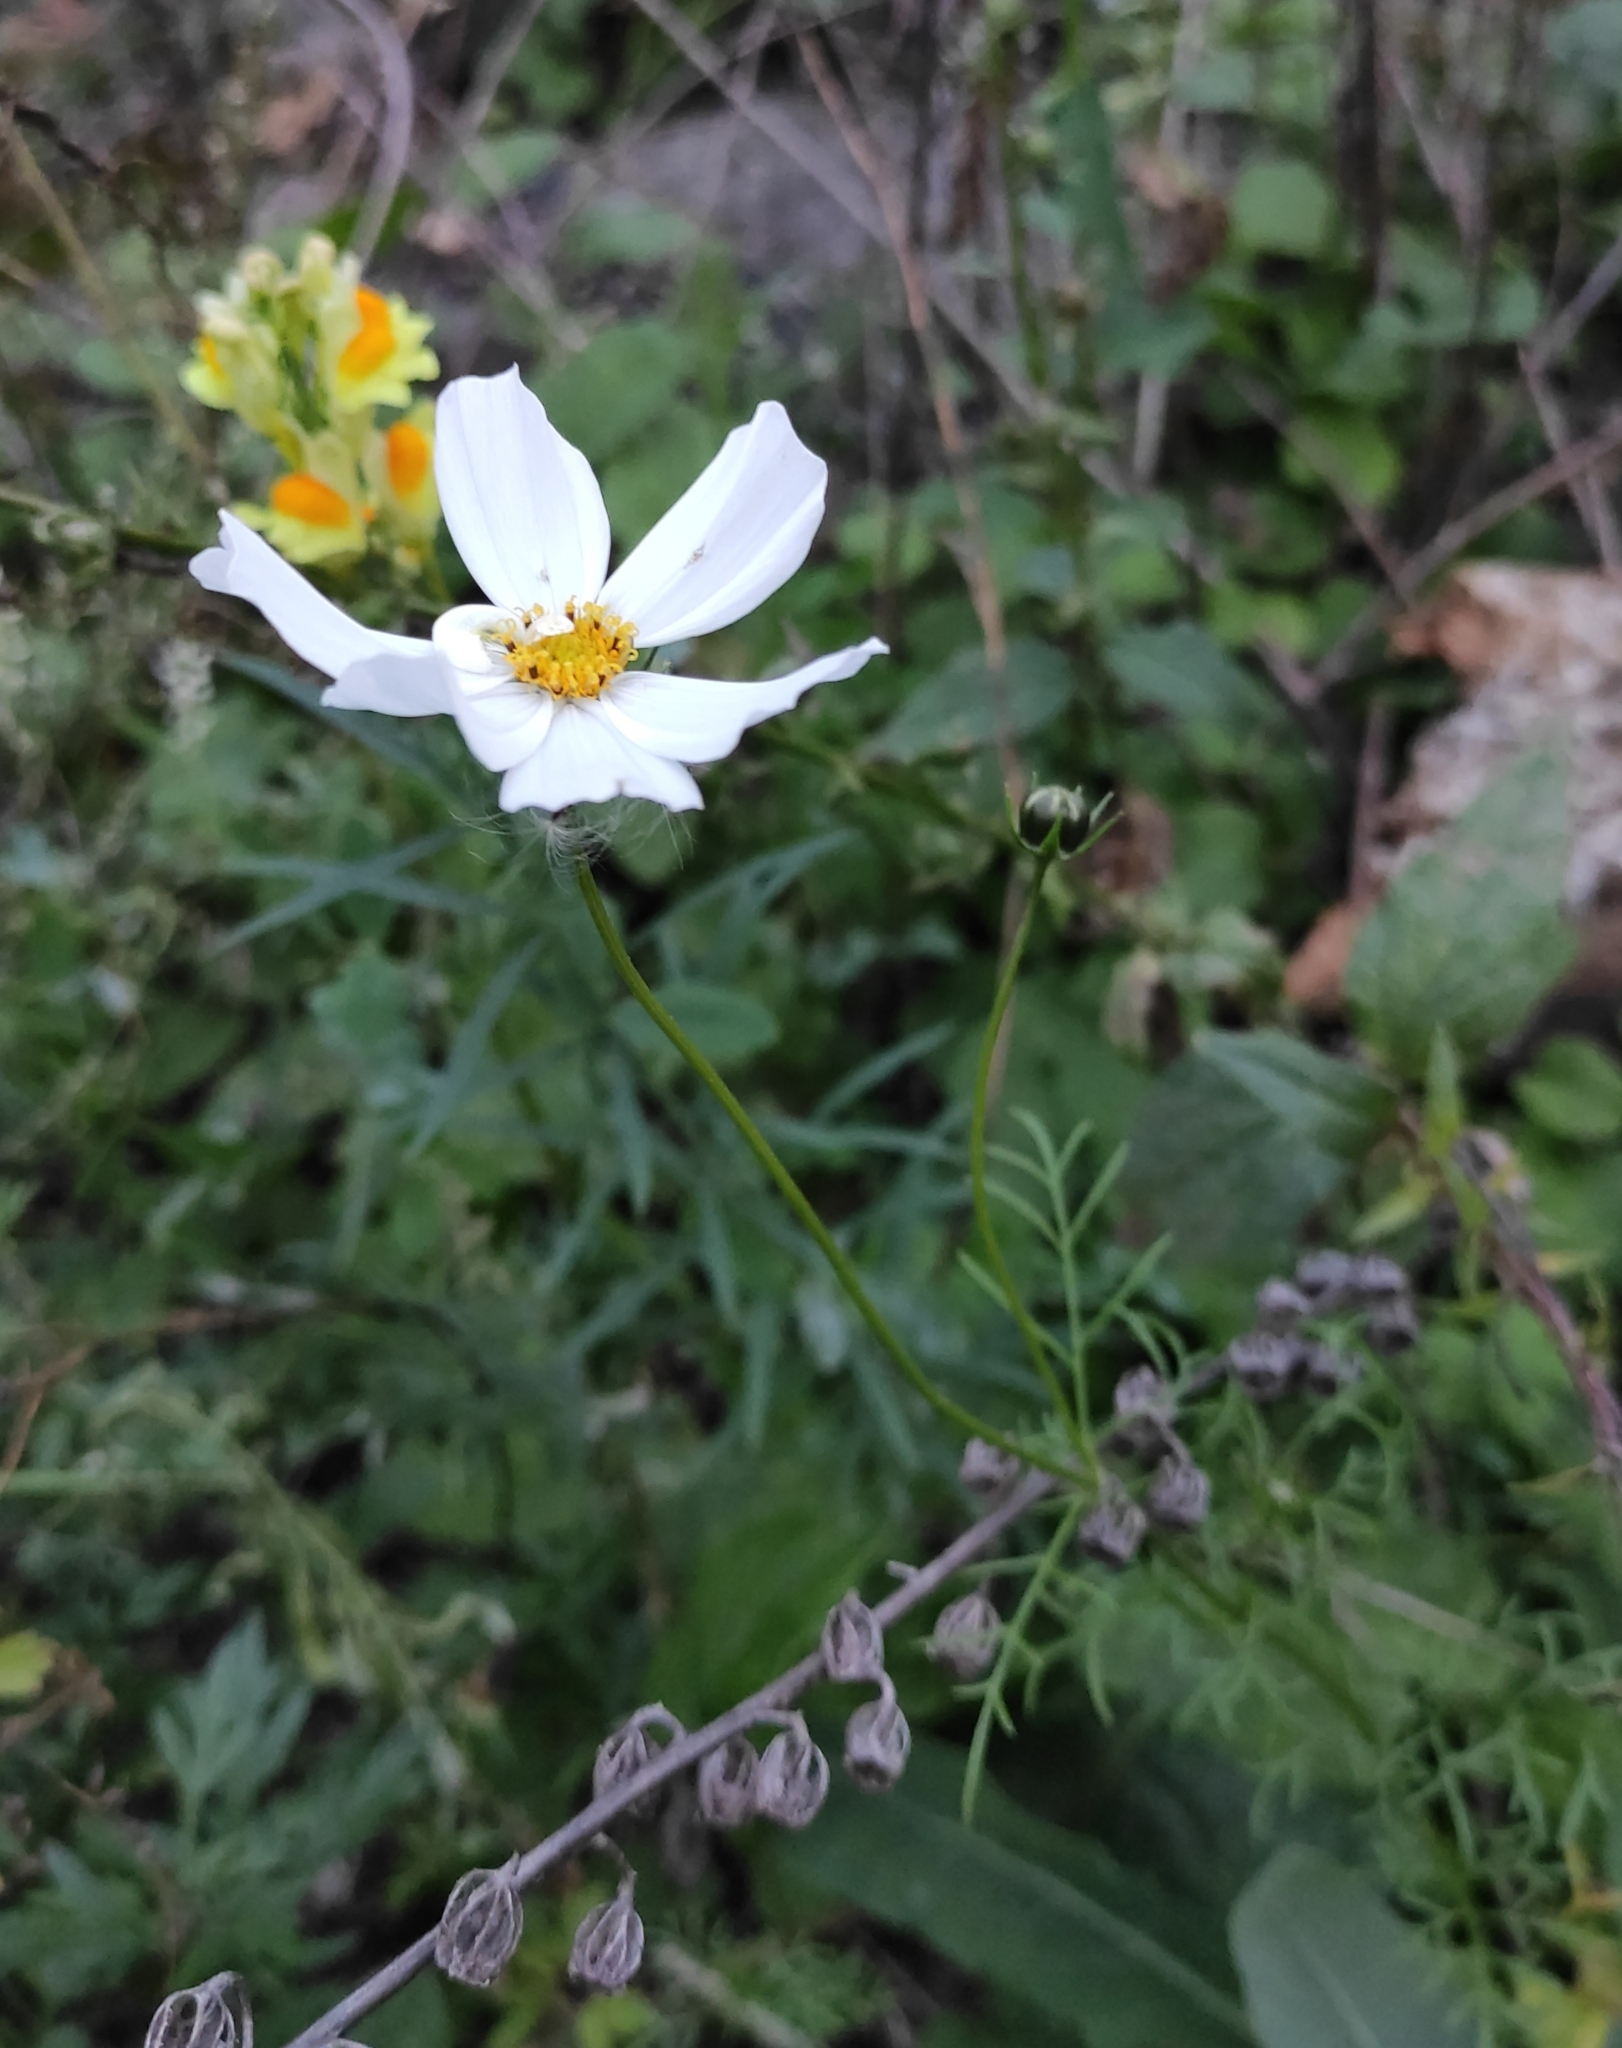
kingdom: Plantae
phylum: Tracheophyta
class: Magnoliopsida
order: Asterales
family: Asteraceae
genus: Cosmos
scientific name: Cosmos bipinnatus
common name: Garden cosmos
